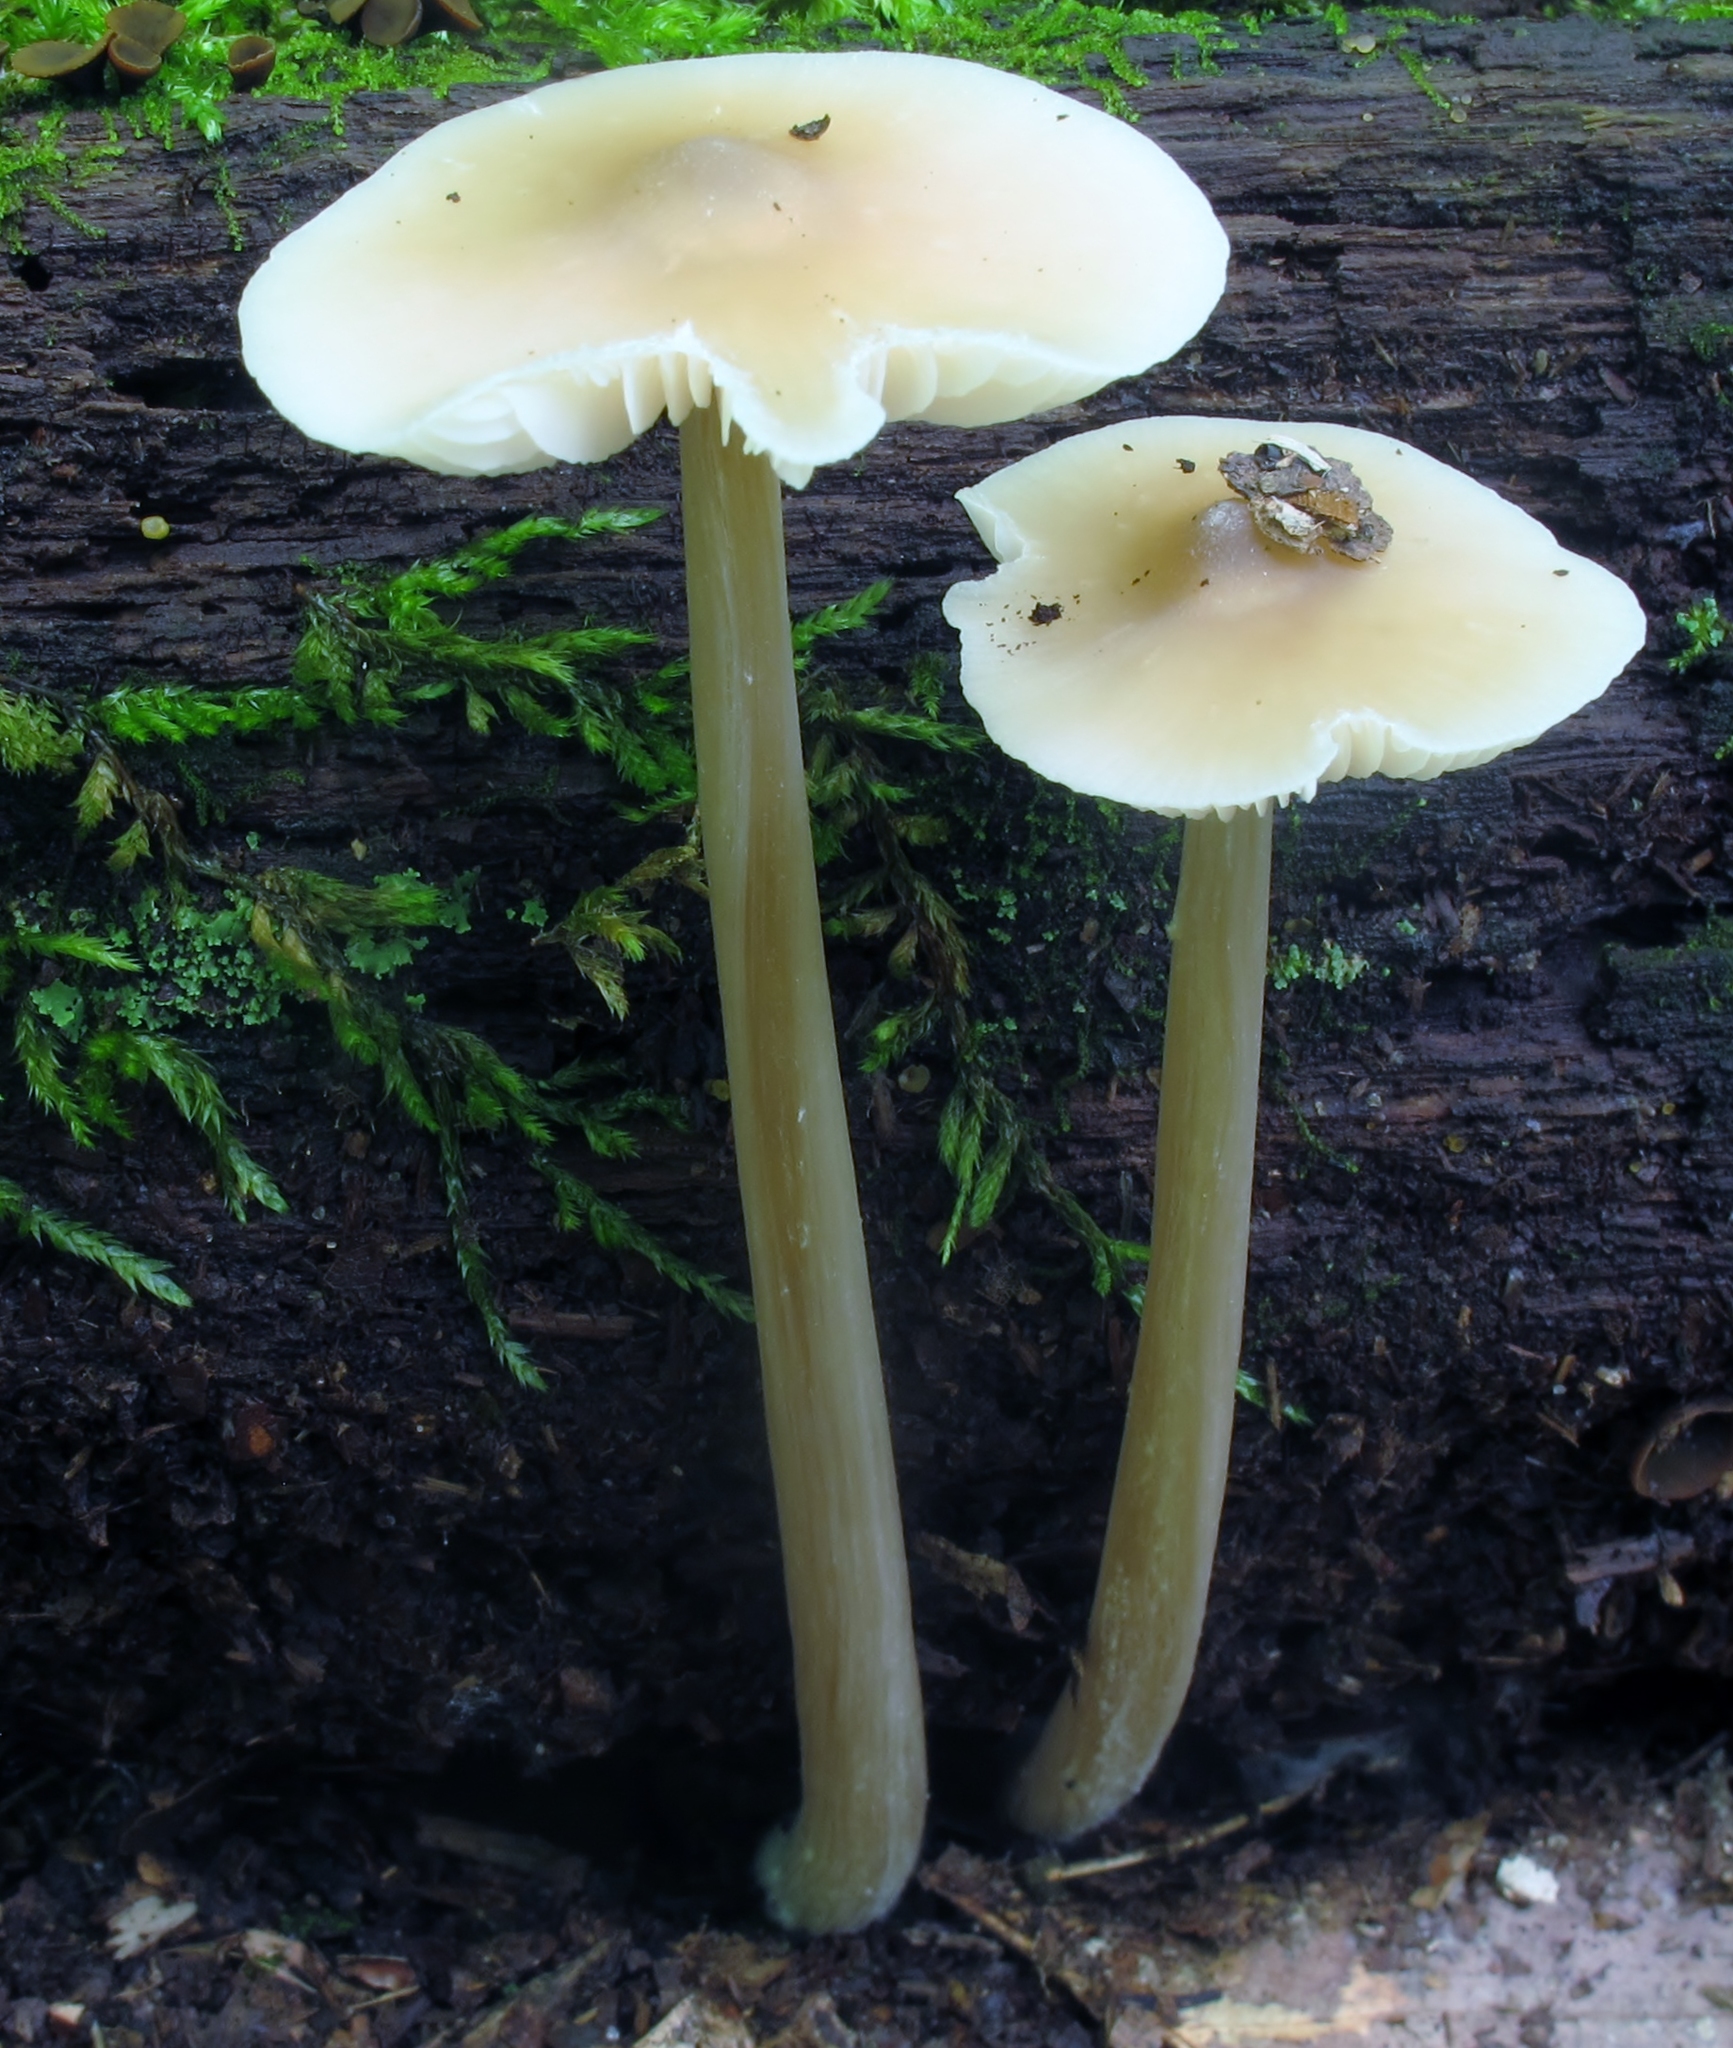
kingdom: Fungi
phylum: Basidiomycota
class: Agaricomycetes
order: Agaricales
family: Entolomataceae
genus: Entoloma
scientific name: Entoloma strictius
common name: Straight-stalked entoloma
